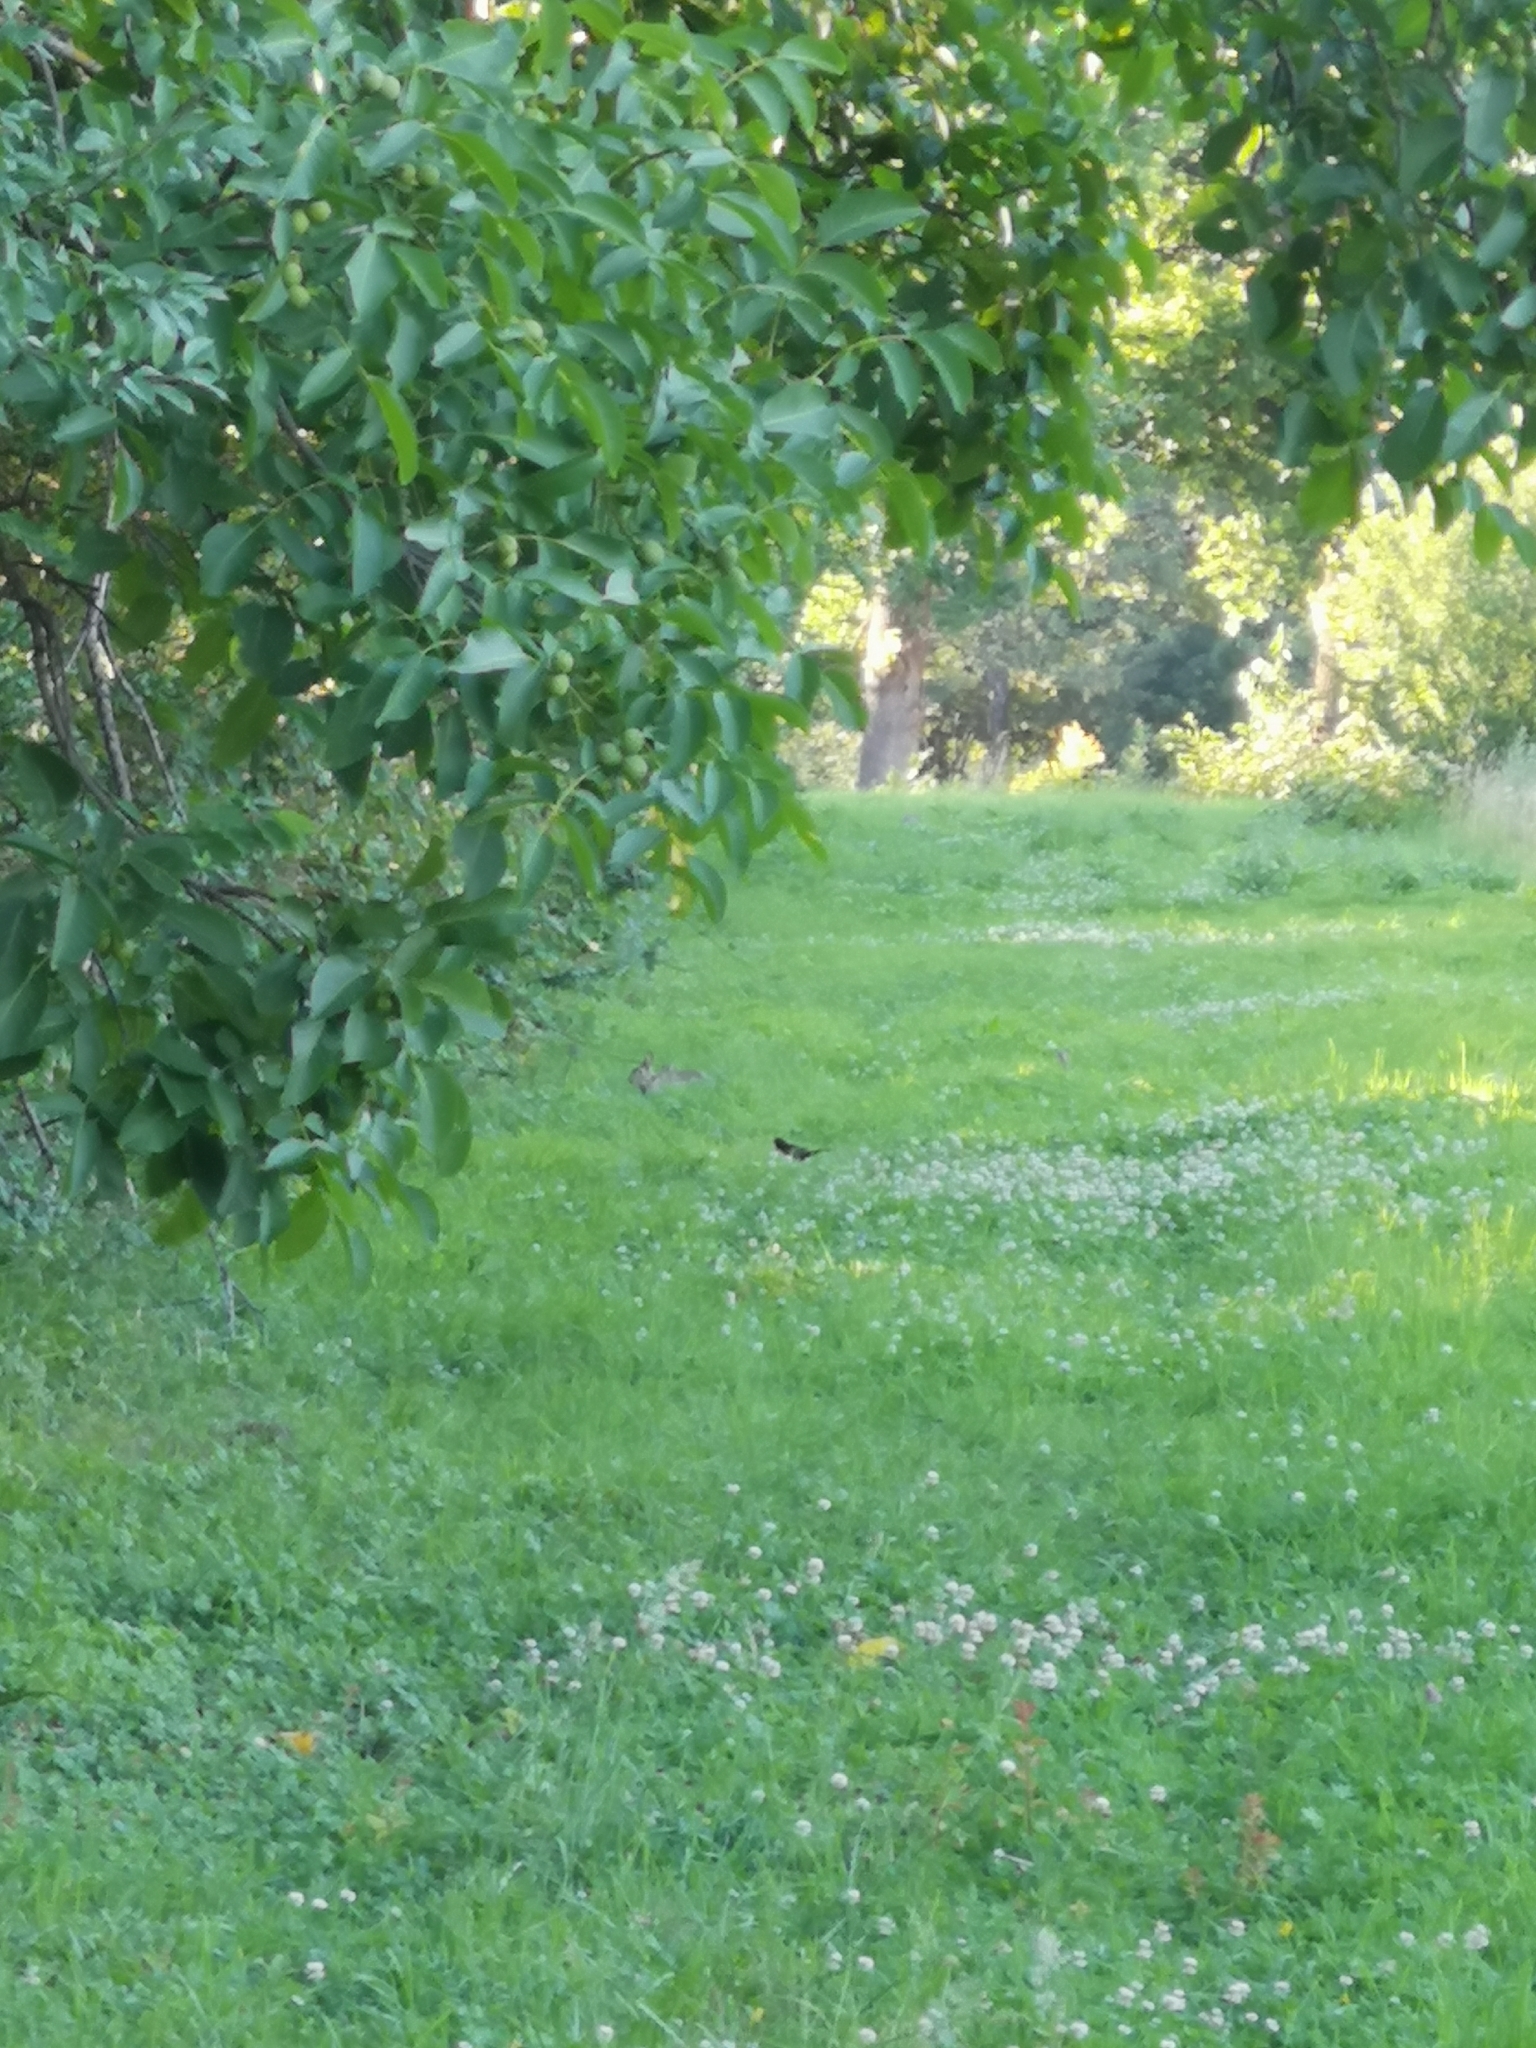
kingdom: Animalia
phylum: Chordata
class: Mammalia
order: Lagomorpha
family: Leporidae
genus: Oryctolagus
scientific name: Oryctolagus cuniculus
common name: European rabbit
